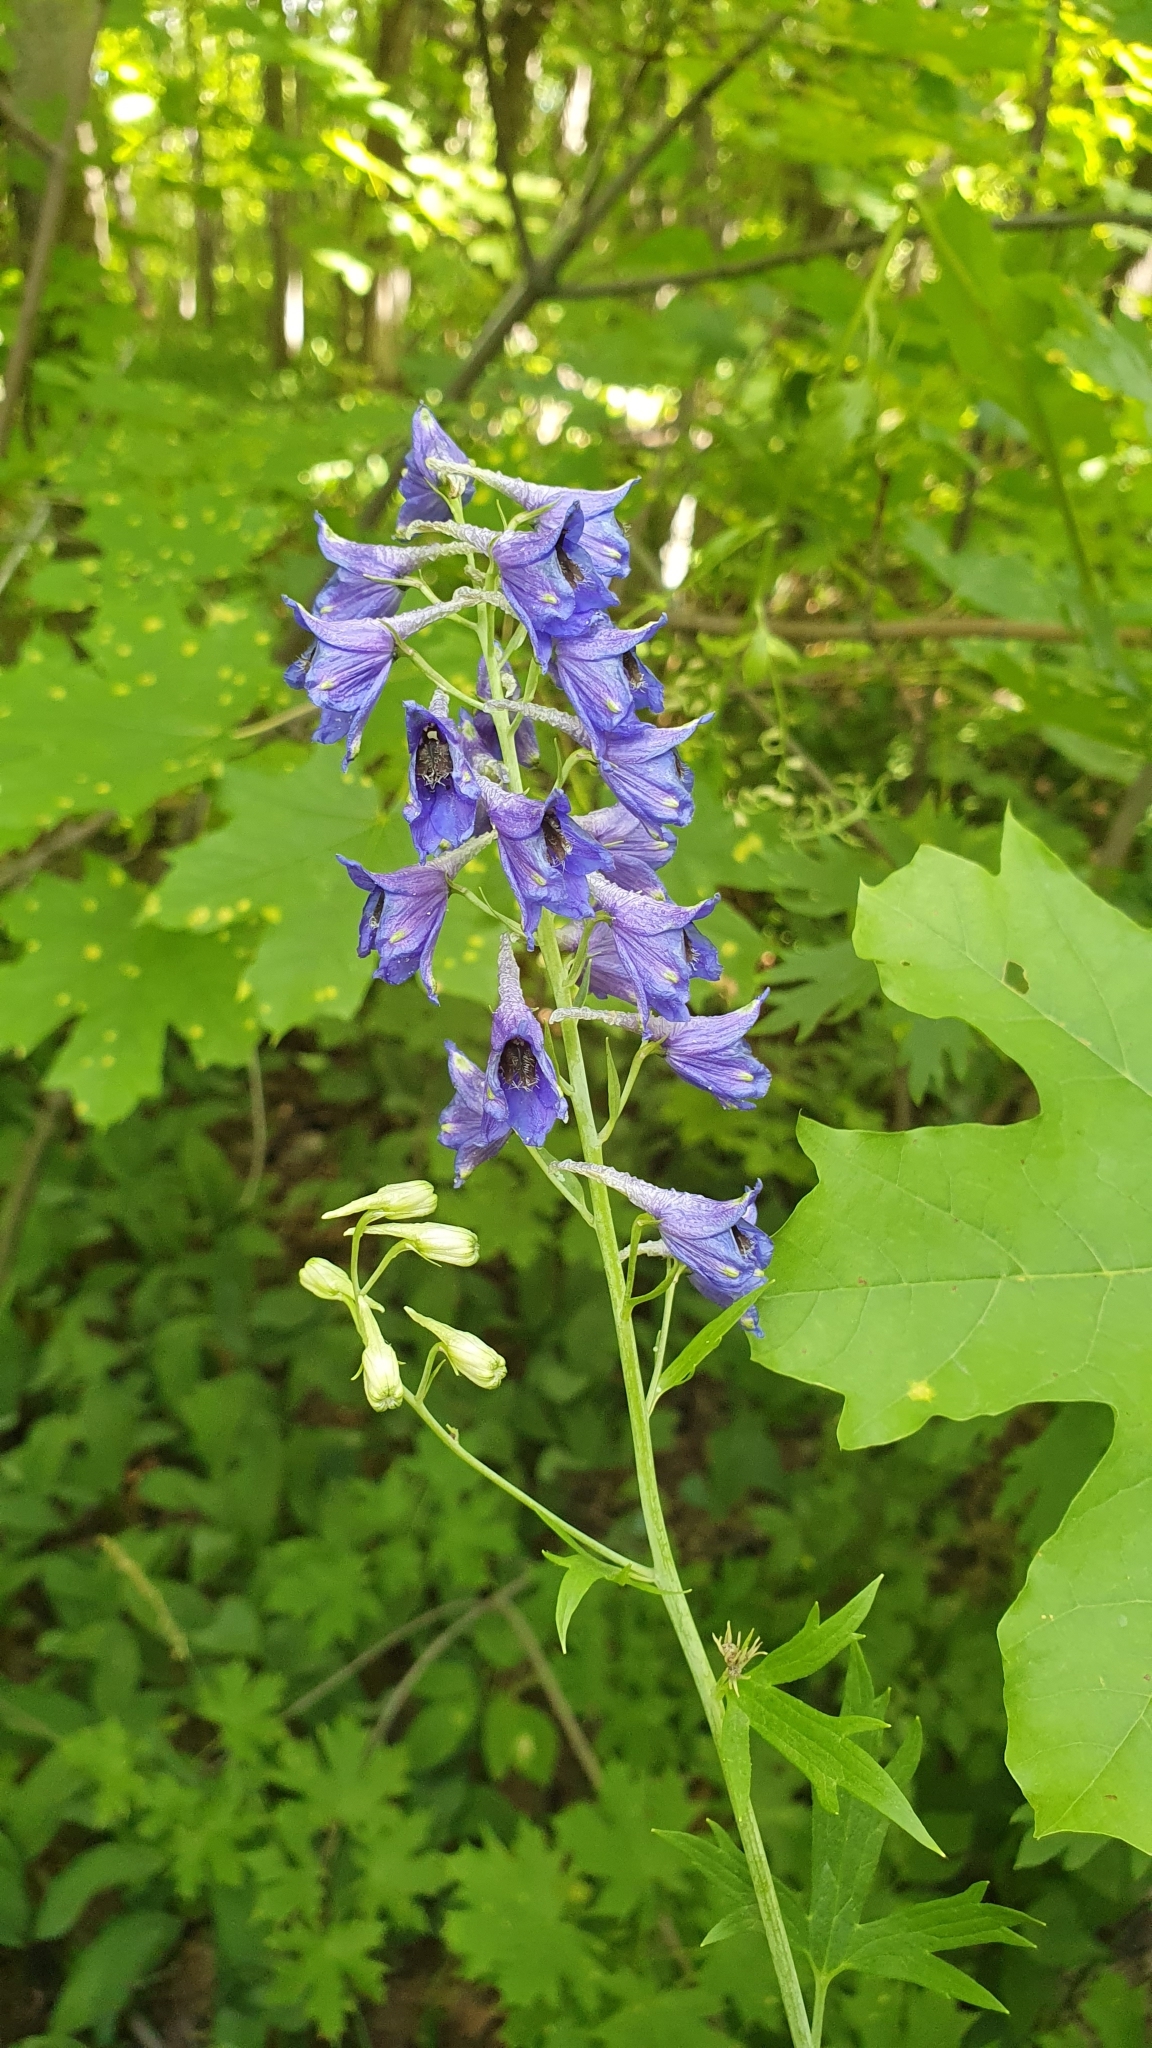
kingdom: Plantae
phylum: Tracheophyta
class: Magnoliopsida
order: Ranunculales
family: Ranunculaceae
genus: Delphinium
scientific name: Delphinium cuneatum
